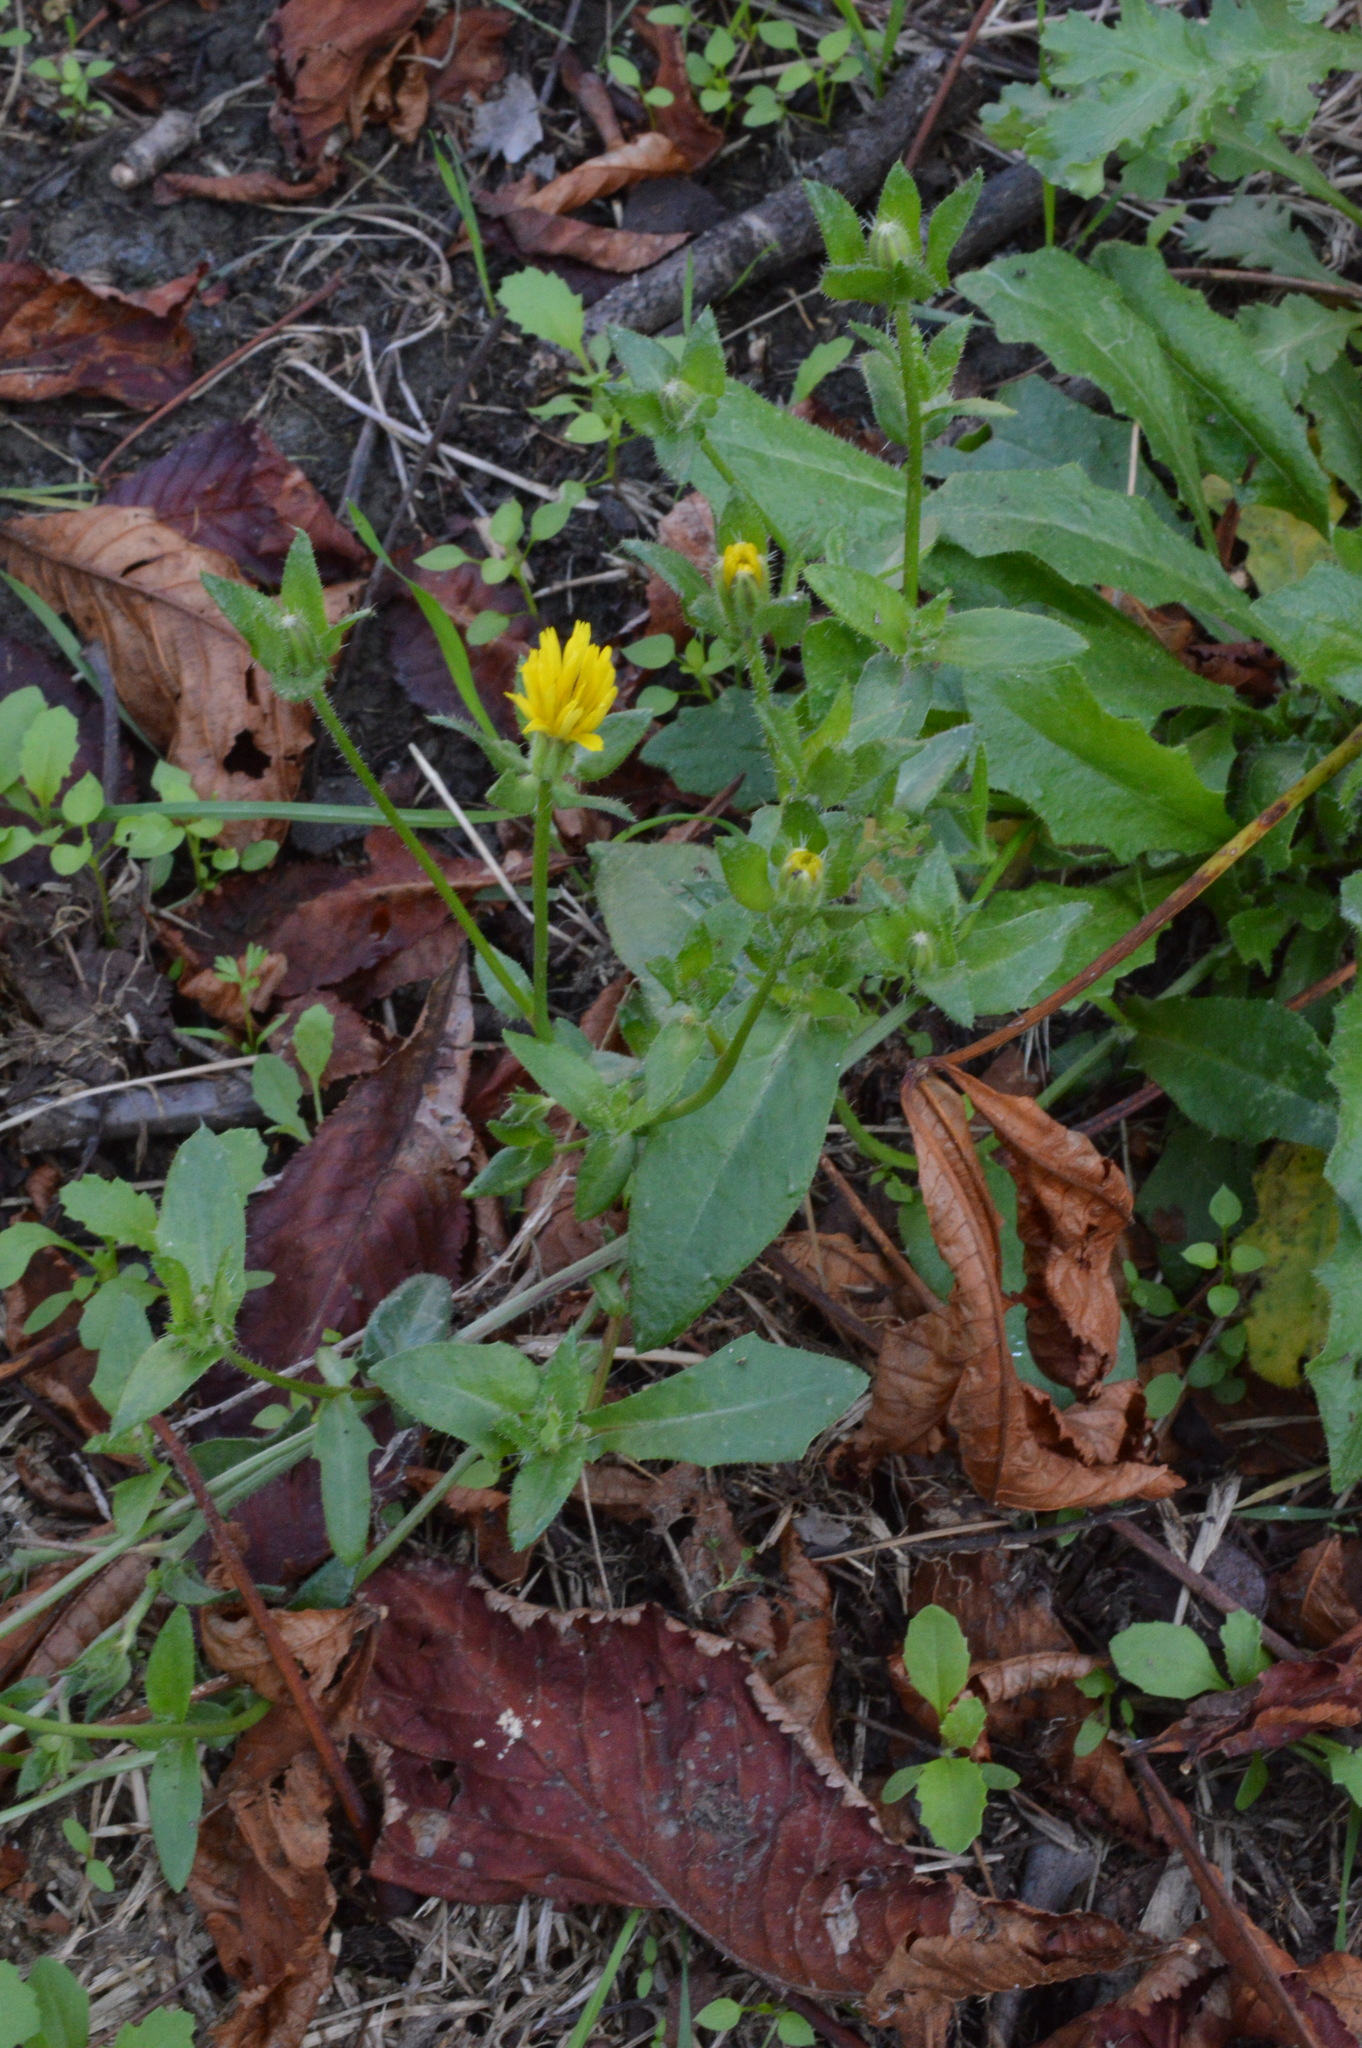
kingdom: Plantae
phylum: Tracheophyta
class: Magnoliopsida
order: Asterales
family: Asteraceae
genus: Helminthotheca
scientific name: Helminthotheca echioides
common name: Ox-tongue
